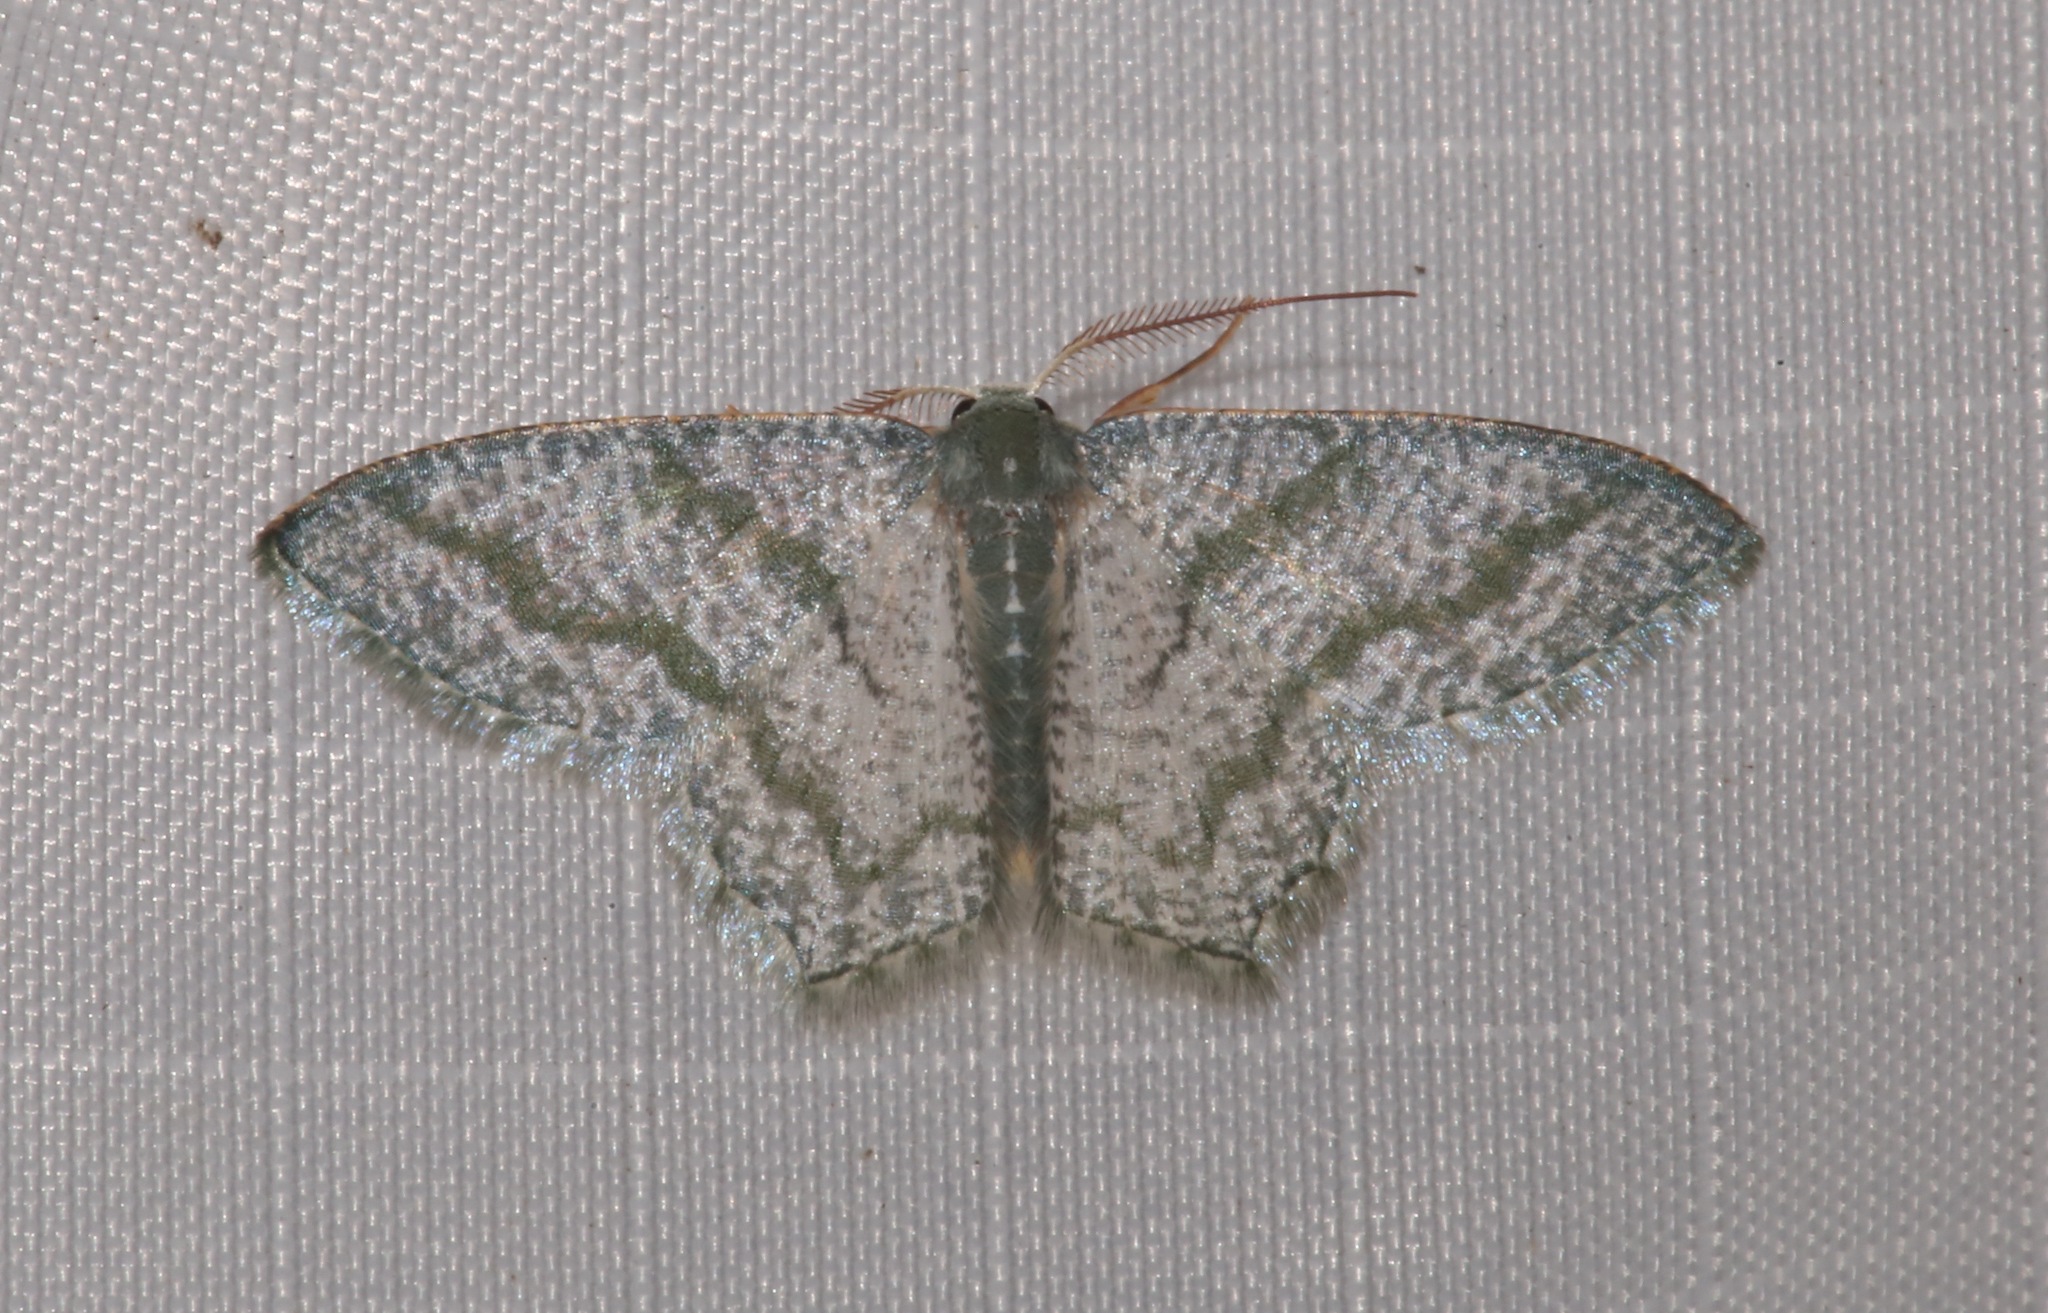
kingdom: Animalia
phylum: Arthropoda
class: Insecta
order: Lepidoptera
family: Geometridae
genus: Chloropteryx
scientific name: Chloropteryx opalaria
